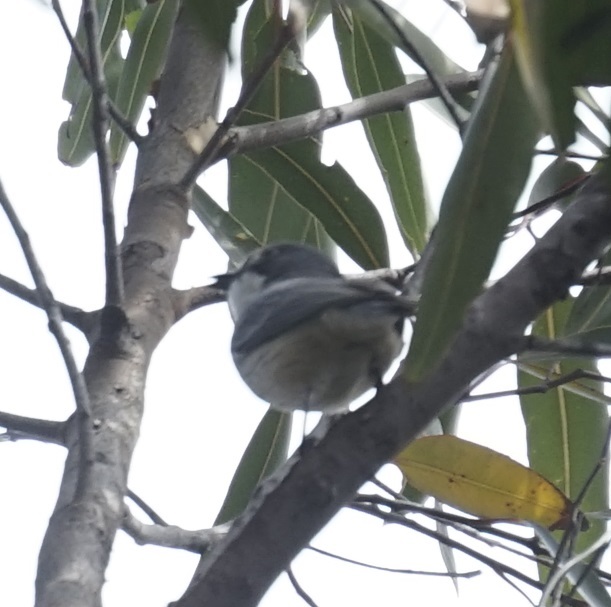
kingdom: Animalia
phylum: Chordata
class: Aves
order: Passeriformes
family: Pachycephalidae
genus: Pachycephala
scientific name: Pachycephala rufiventris
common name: Rufous whistler
